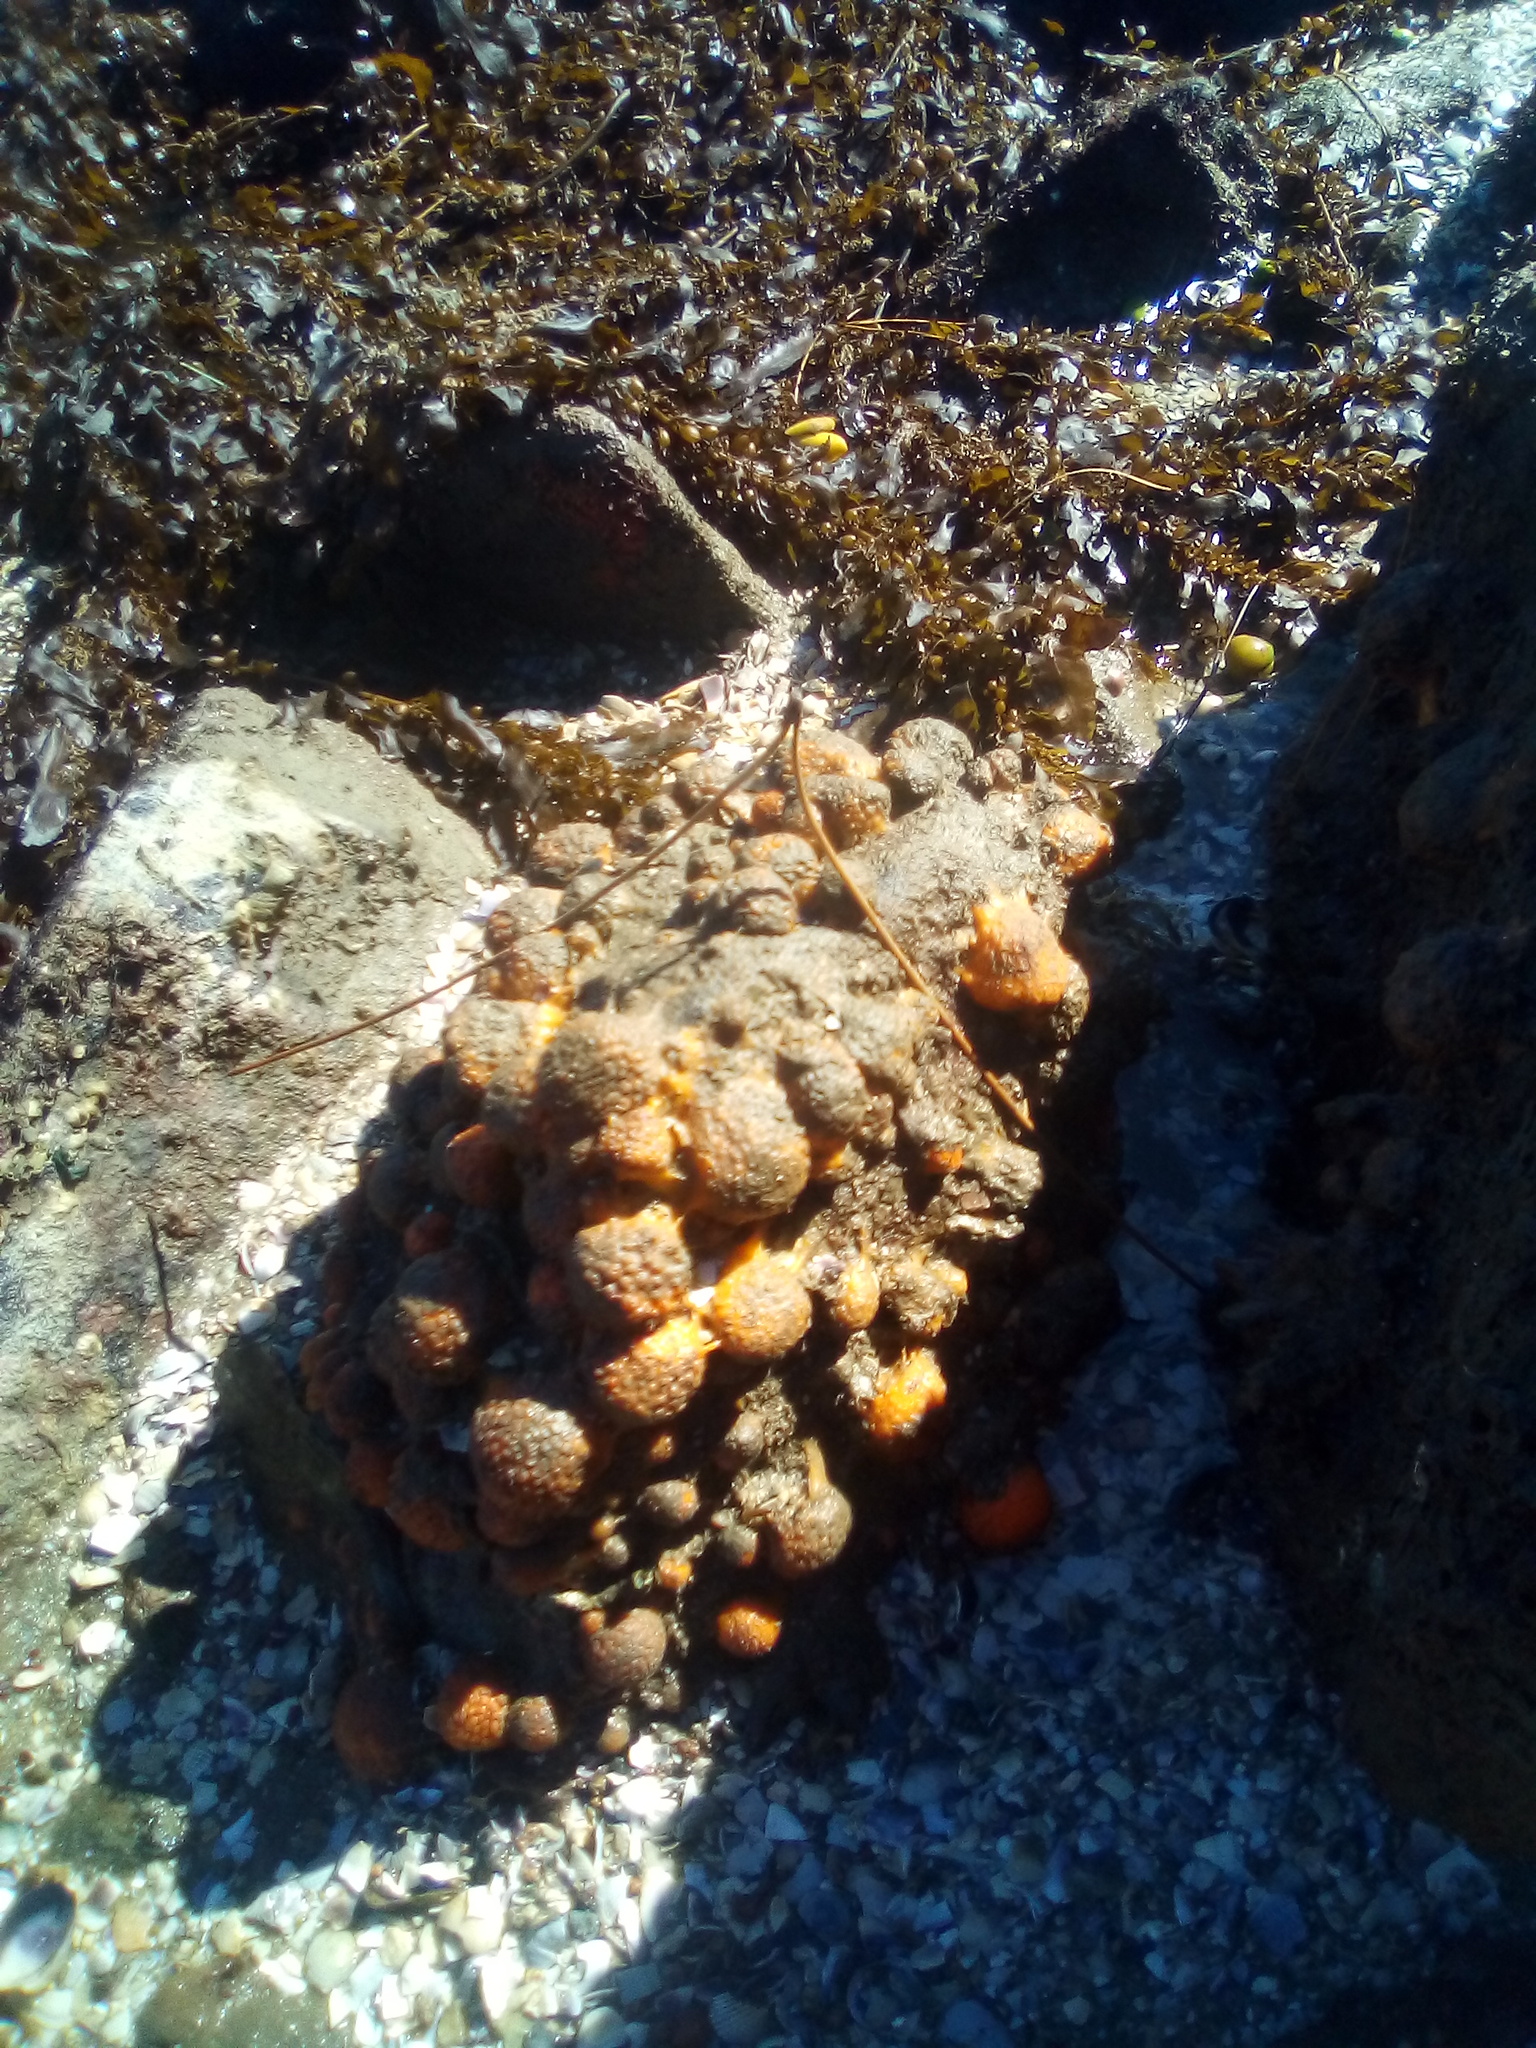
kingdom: Animalia
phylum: Porifera
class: Demospongiae
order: Tethyida
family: Tethyidae
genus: Tethya
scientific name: Tethya burtoni
